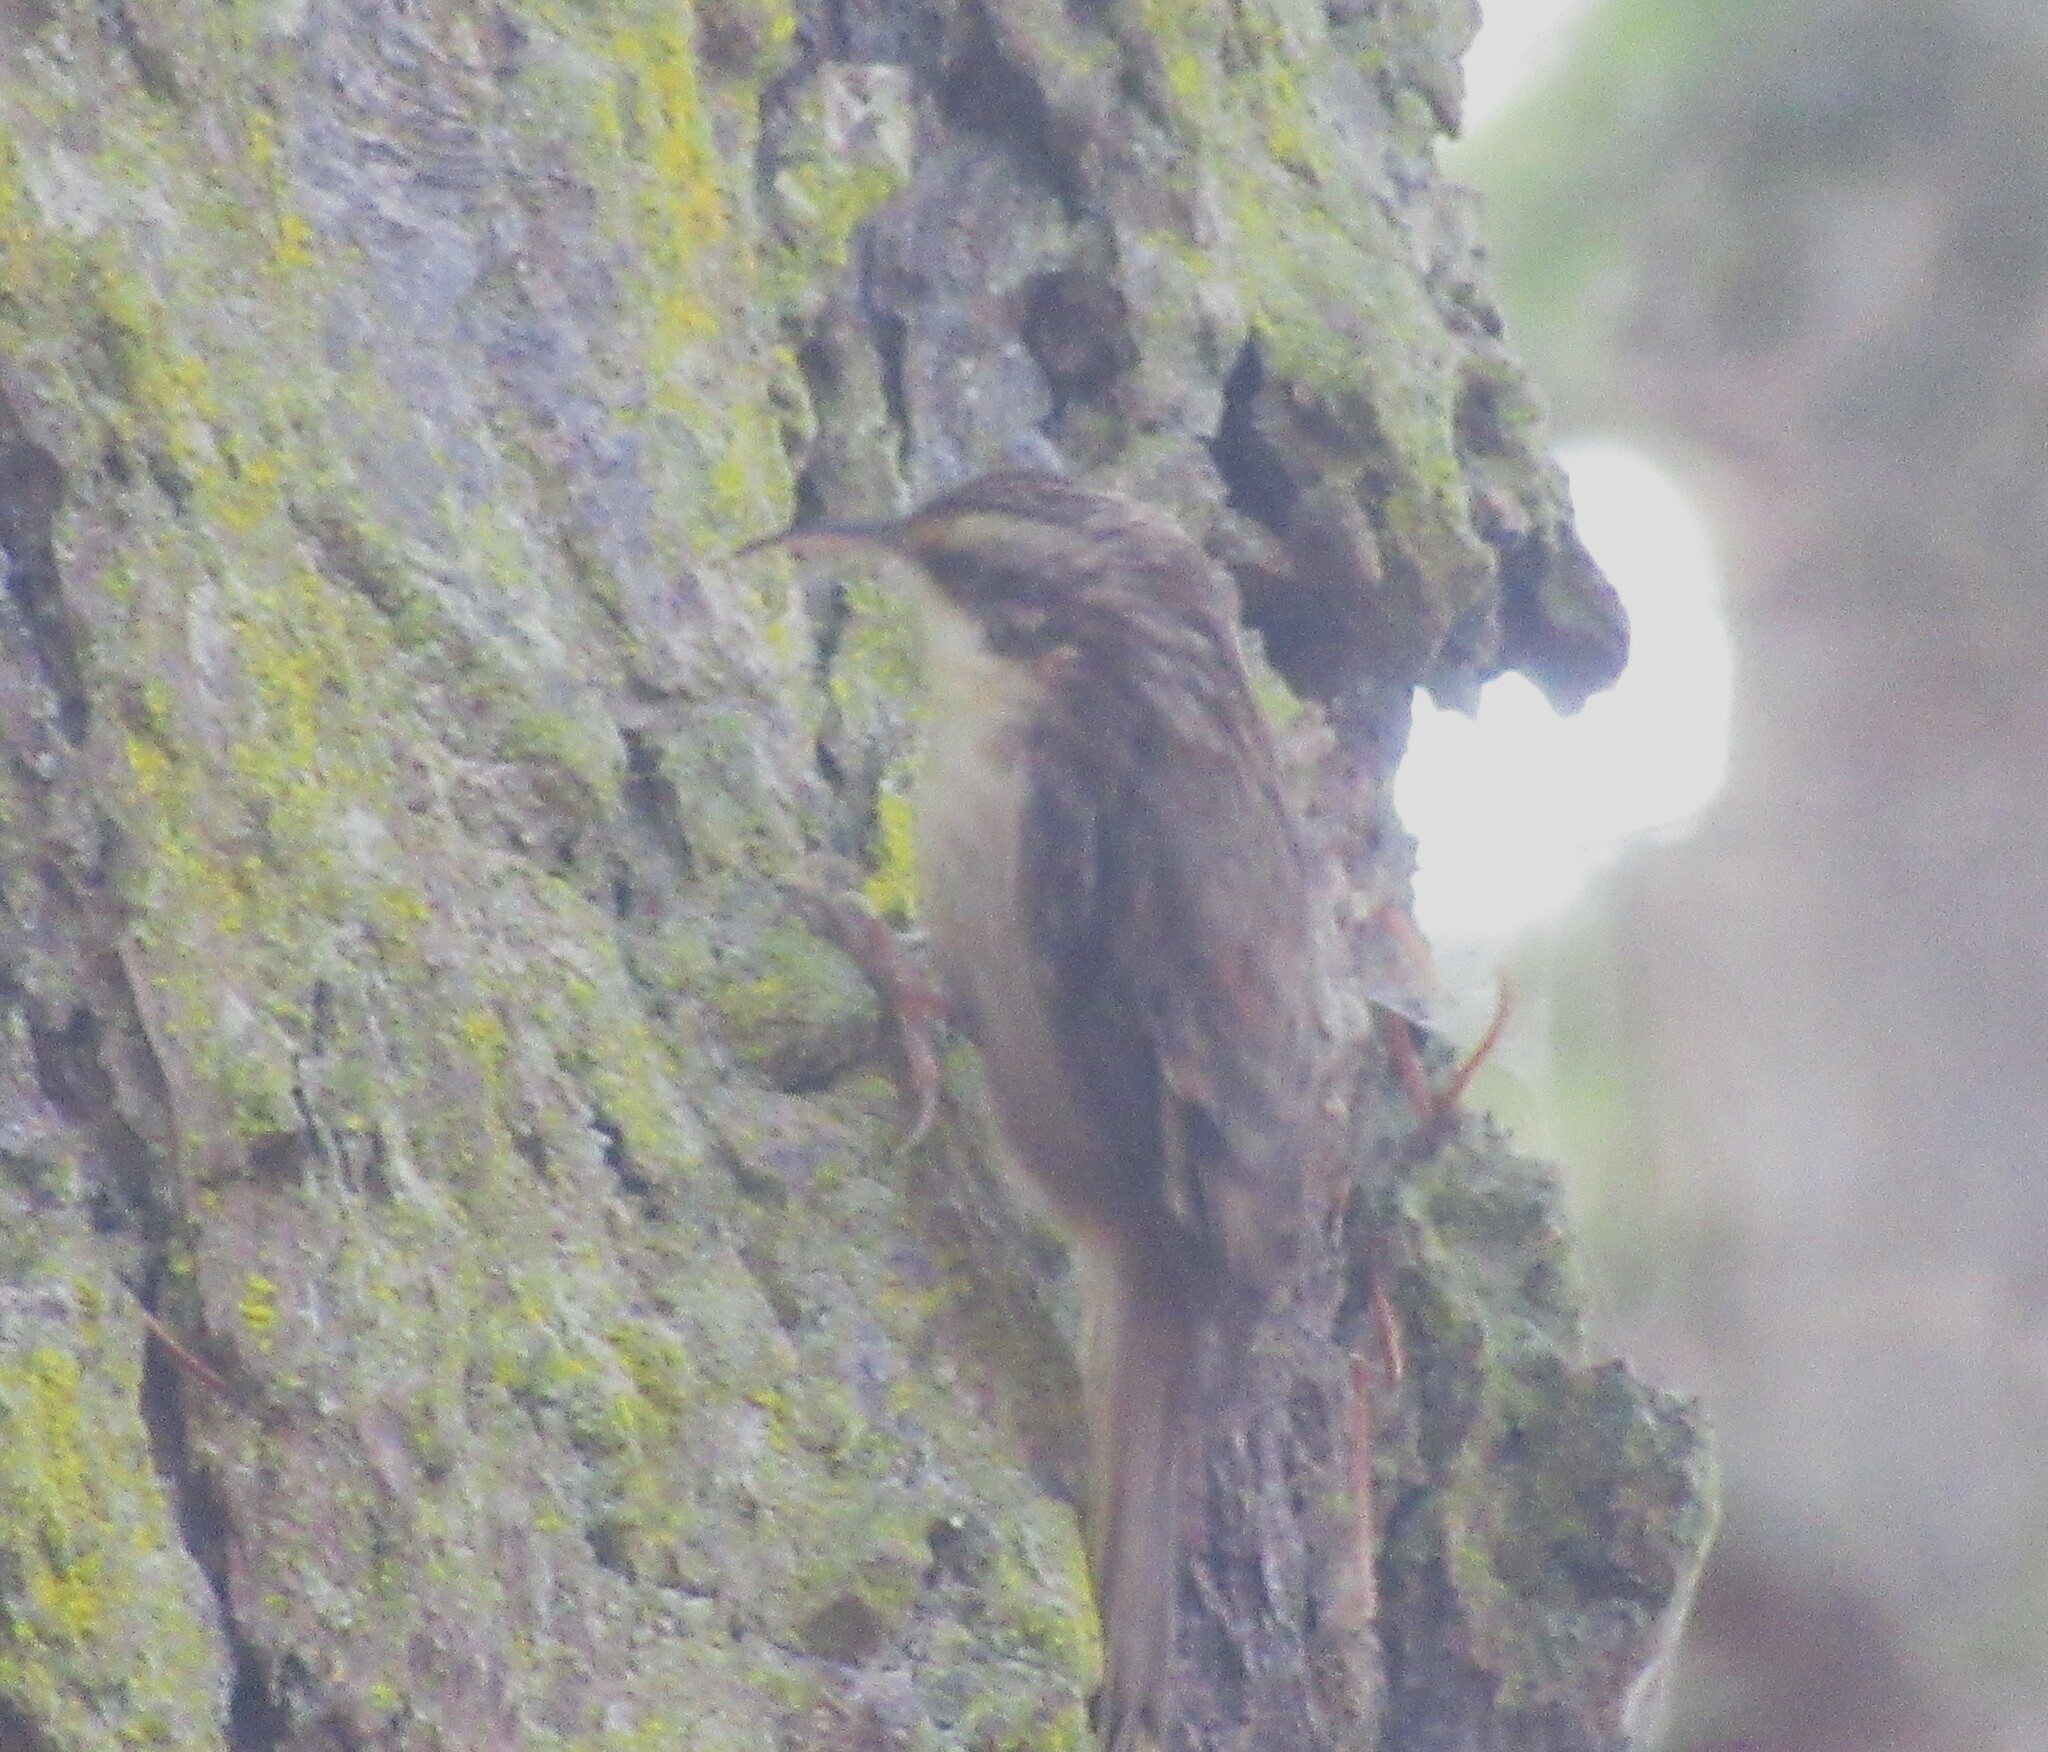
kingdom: Animalia
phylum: Chordata
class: Aves
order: Passeriformes
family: Certhiidae
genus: Certhia
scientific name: Certhia americana
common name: Brown creeper
